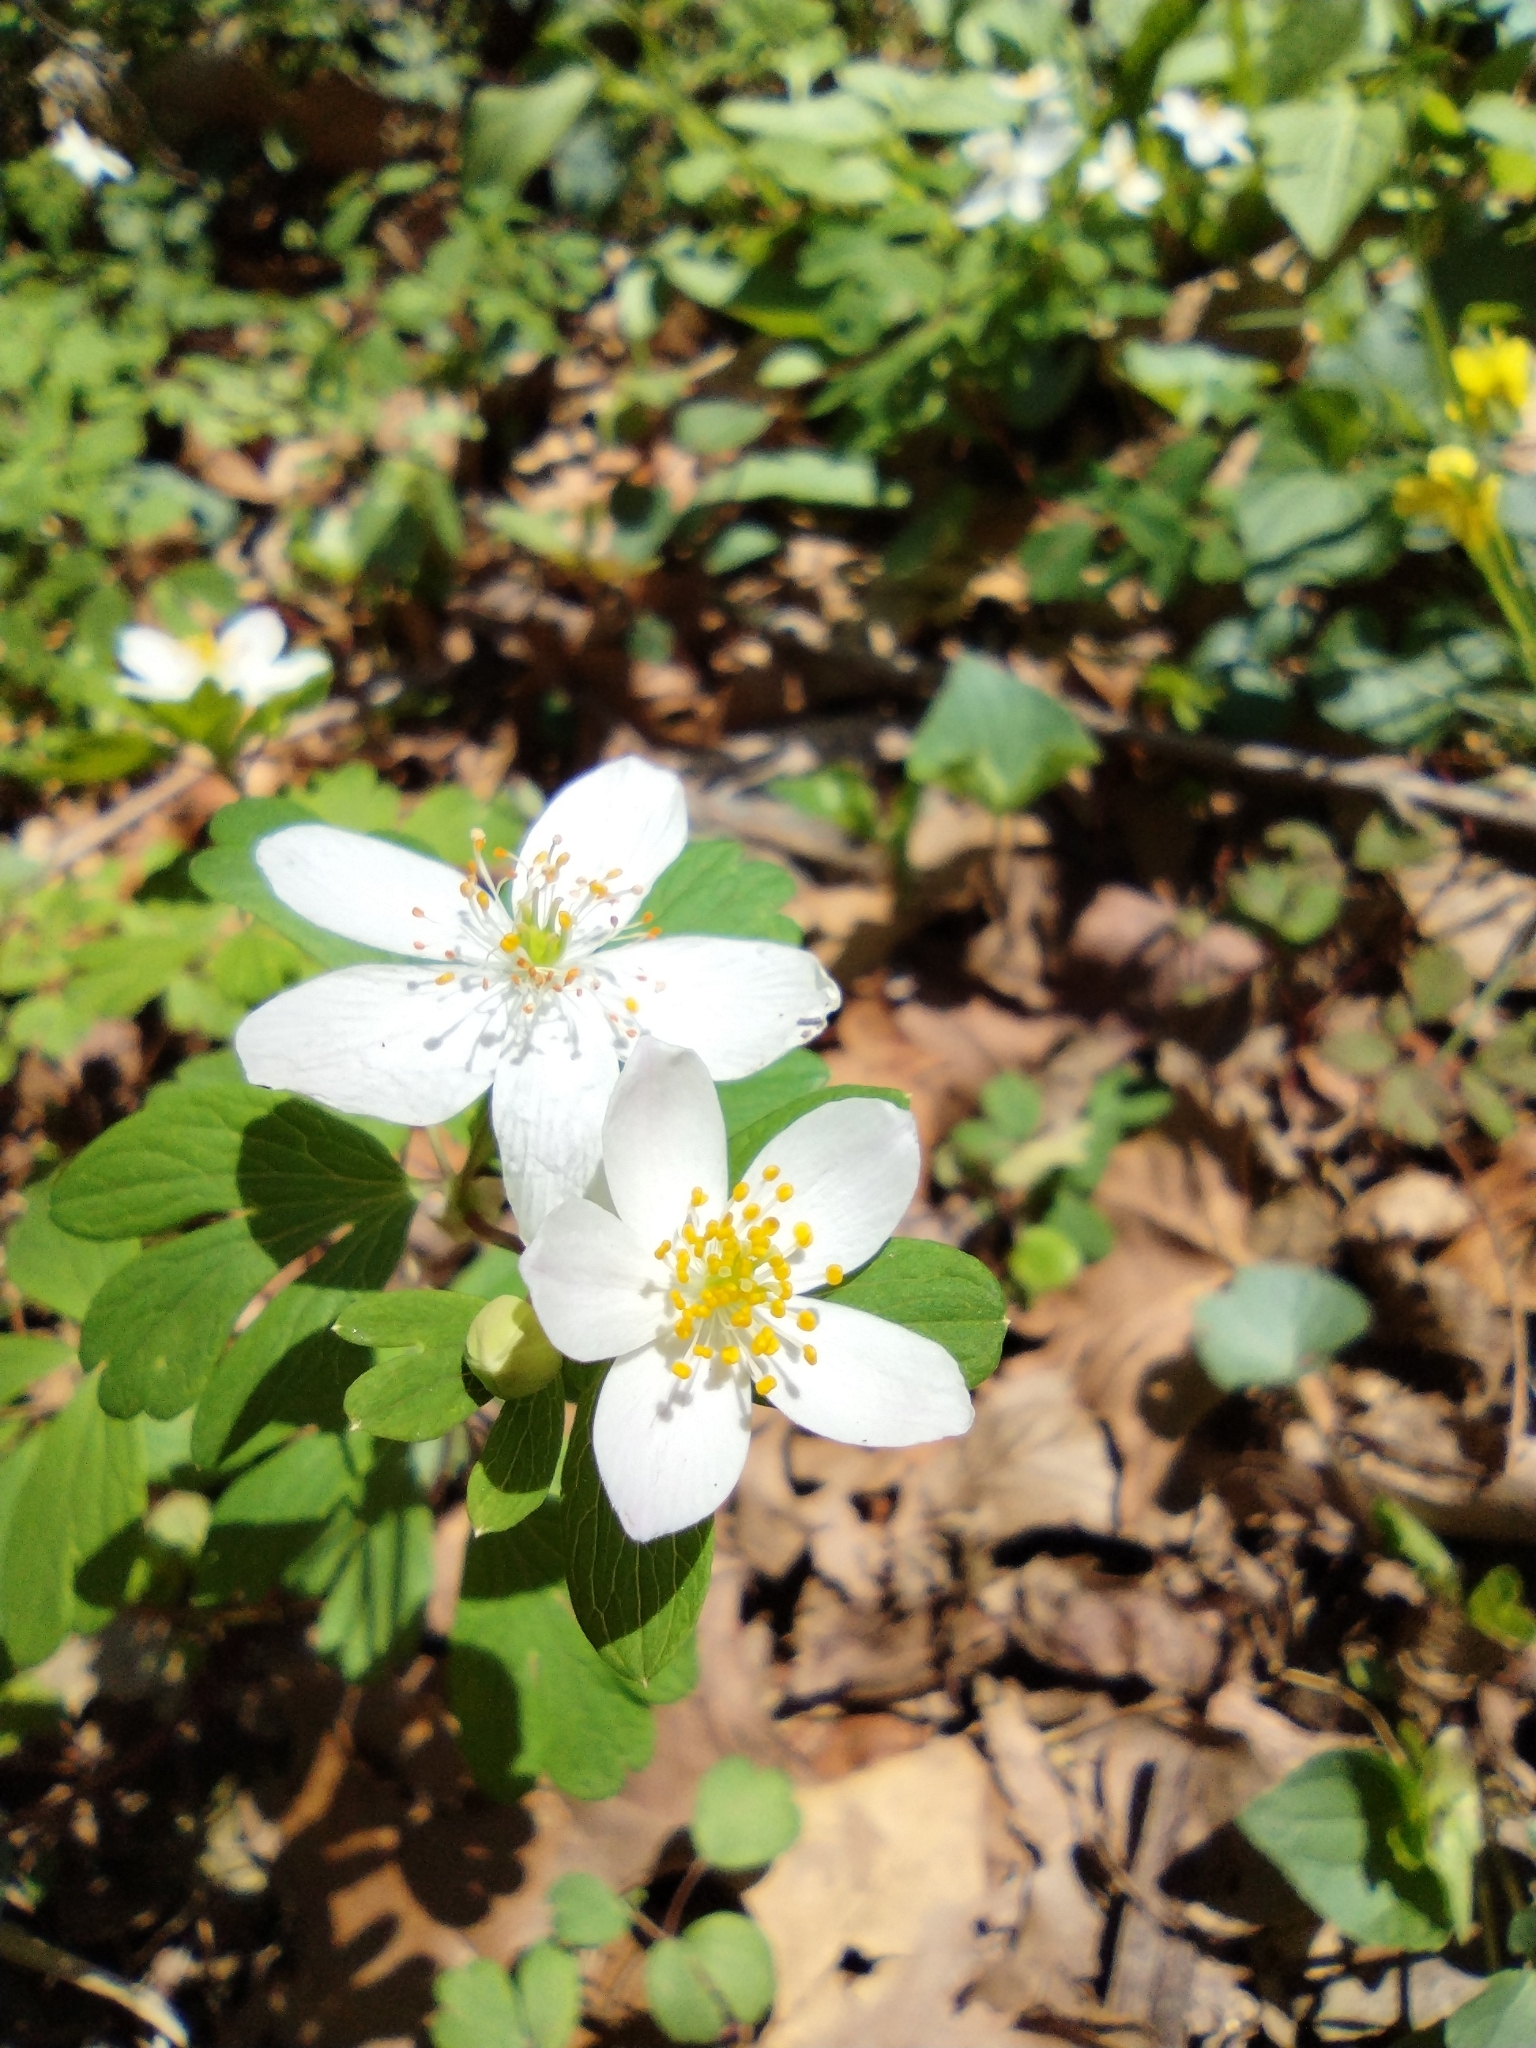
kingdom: Plantae
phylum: Tracheophyta
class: Magnoliopsida
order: Ranunculales
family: Ranunculaceae
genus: Enemion
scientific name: Enemion biternatum
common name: Eastern false rue-anemone
